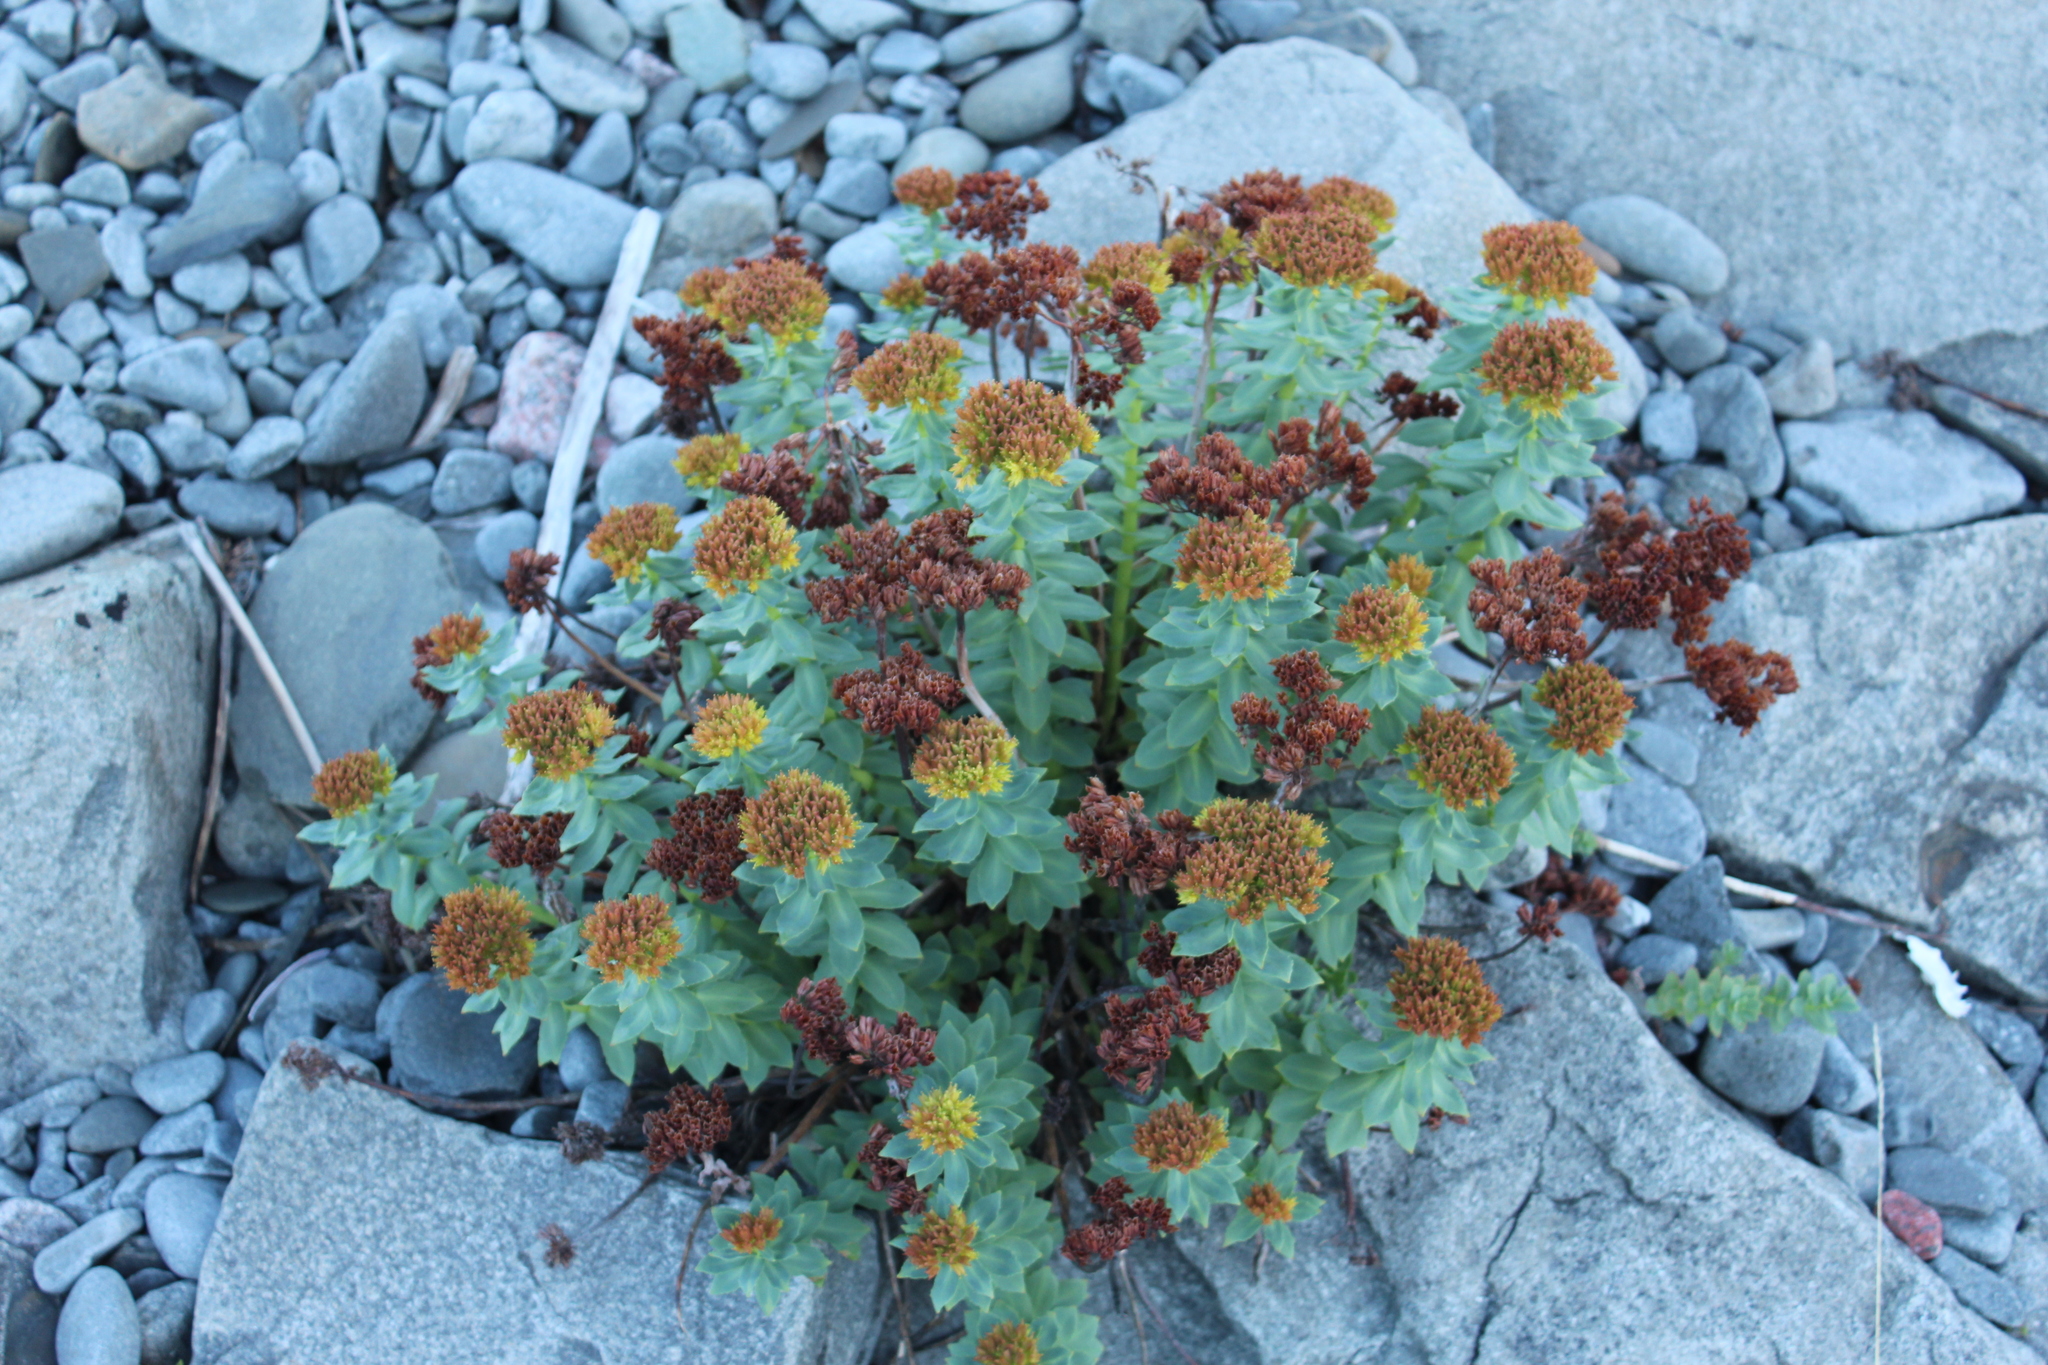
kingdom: Plantae
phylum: Tracheophyta
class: Magnoliopsida
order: Saxifragales
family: Crassulaceae
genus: Rhodiola
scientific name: Rhodiola rosea
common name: Roseroot
